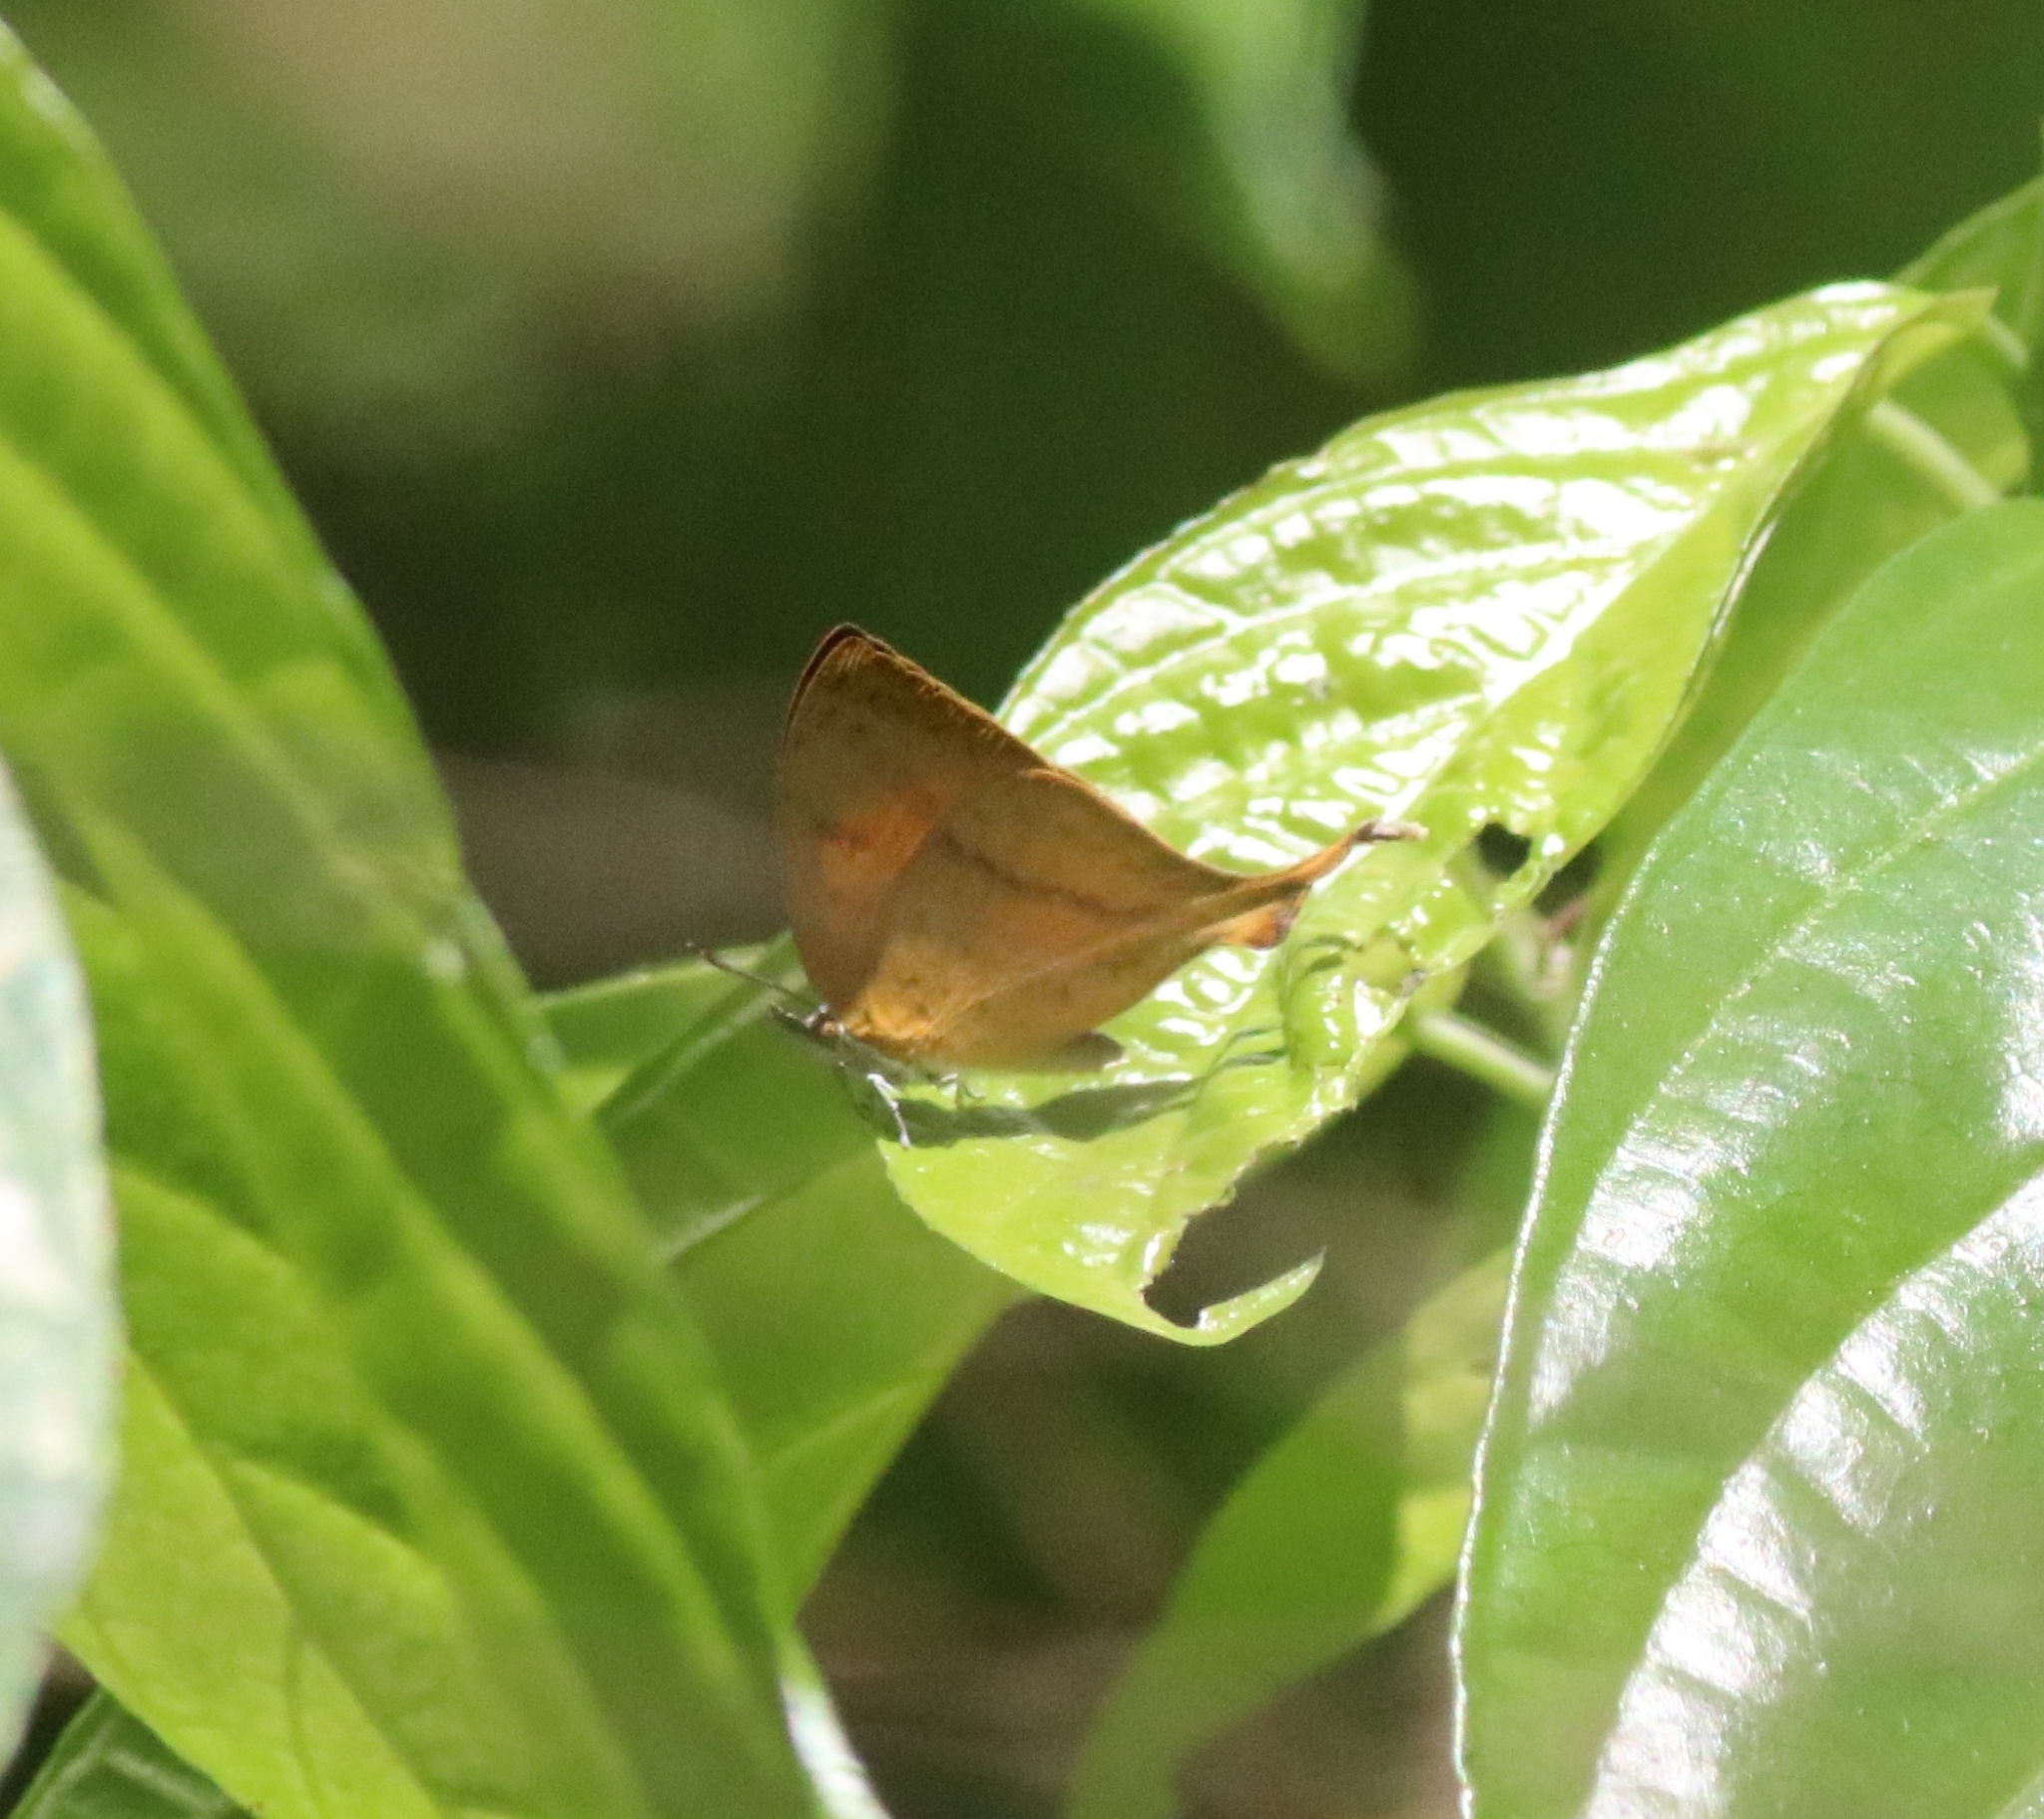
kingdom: Animalia
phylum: Arthropoda
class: Insecta
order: Lepidoptera
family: Lycaenidae
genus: Loxura
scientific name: Loxura atymnus
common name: Common yamfly
